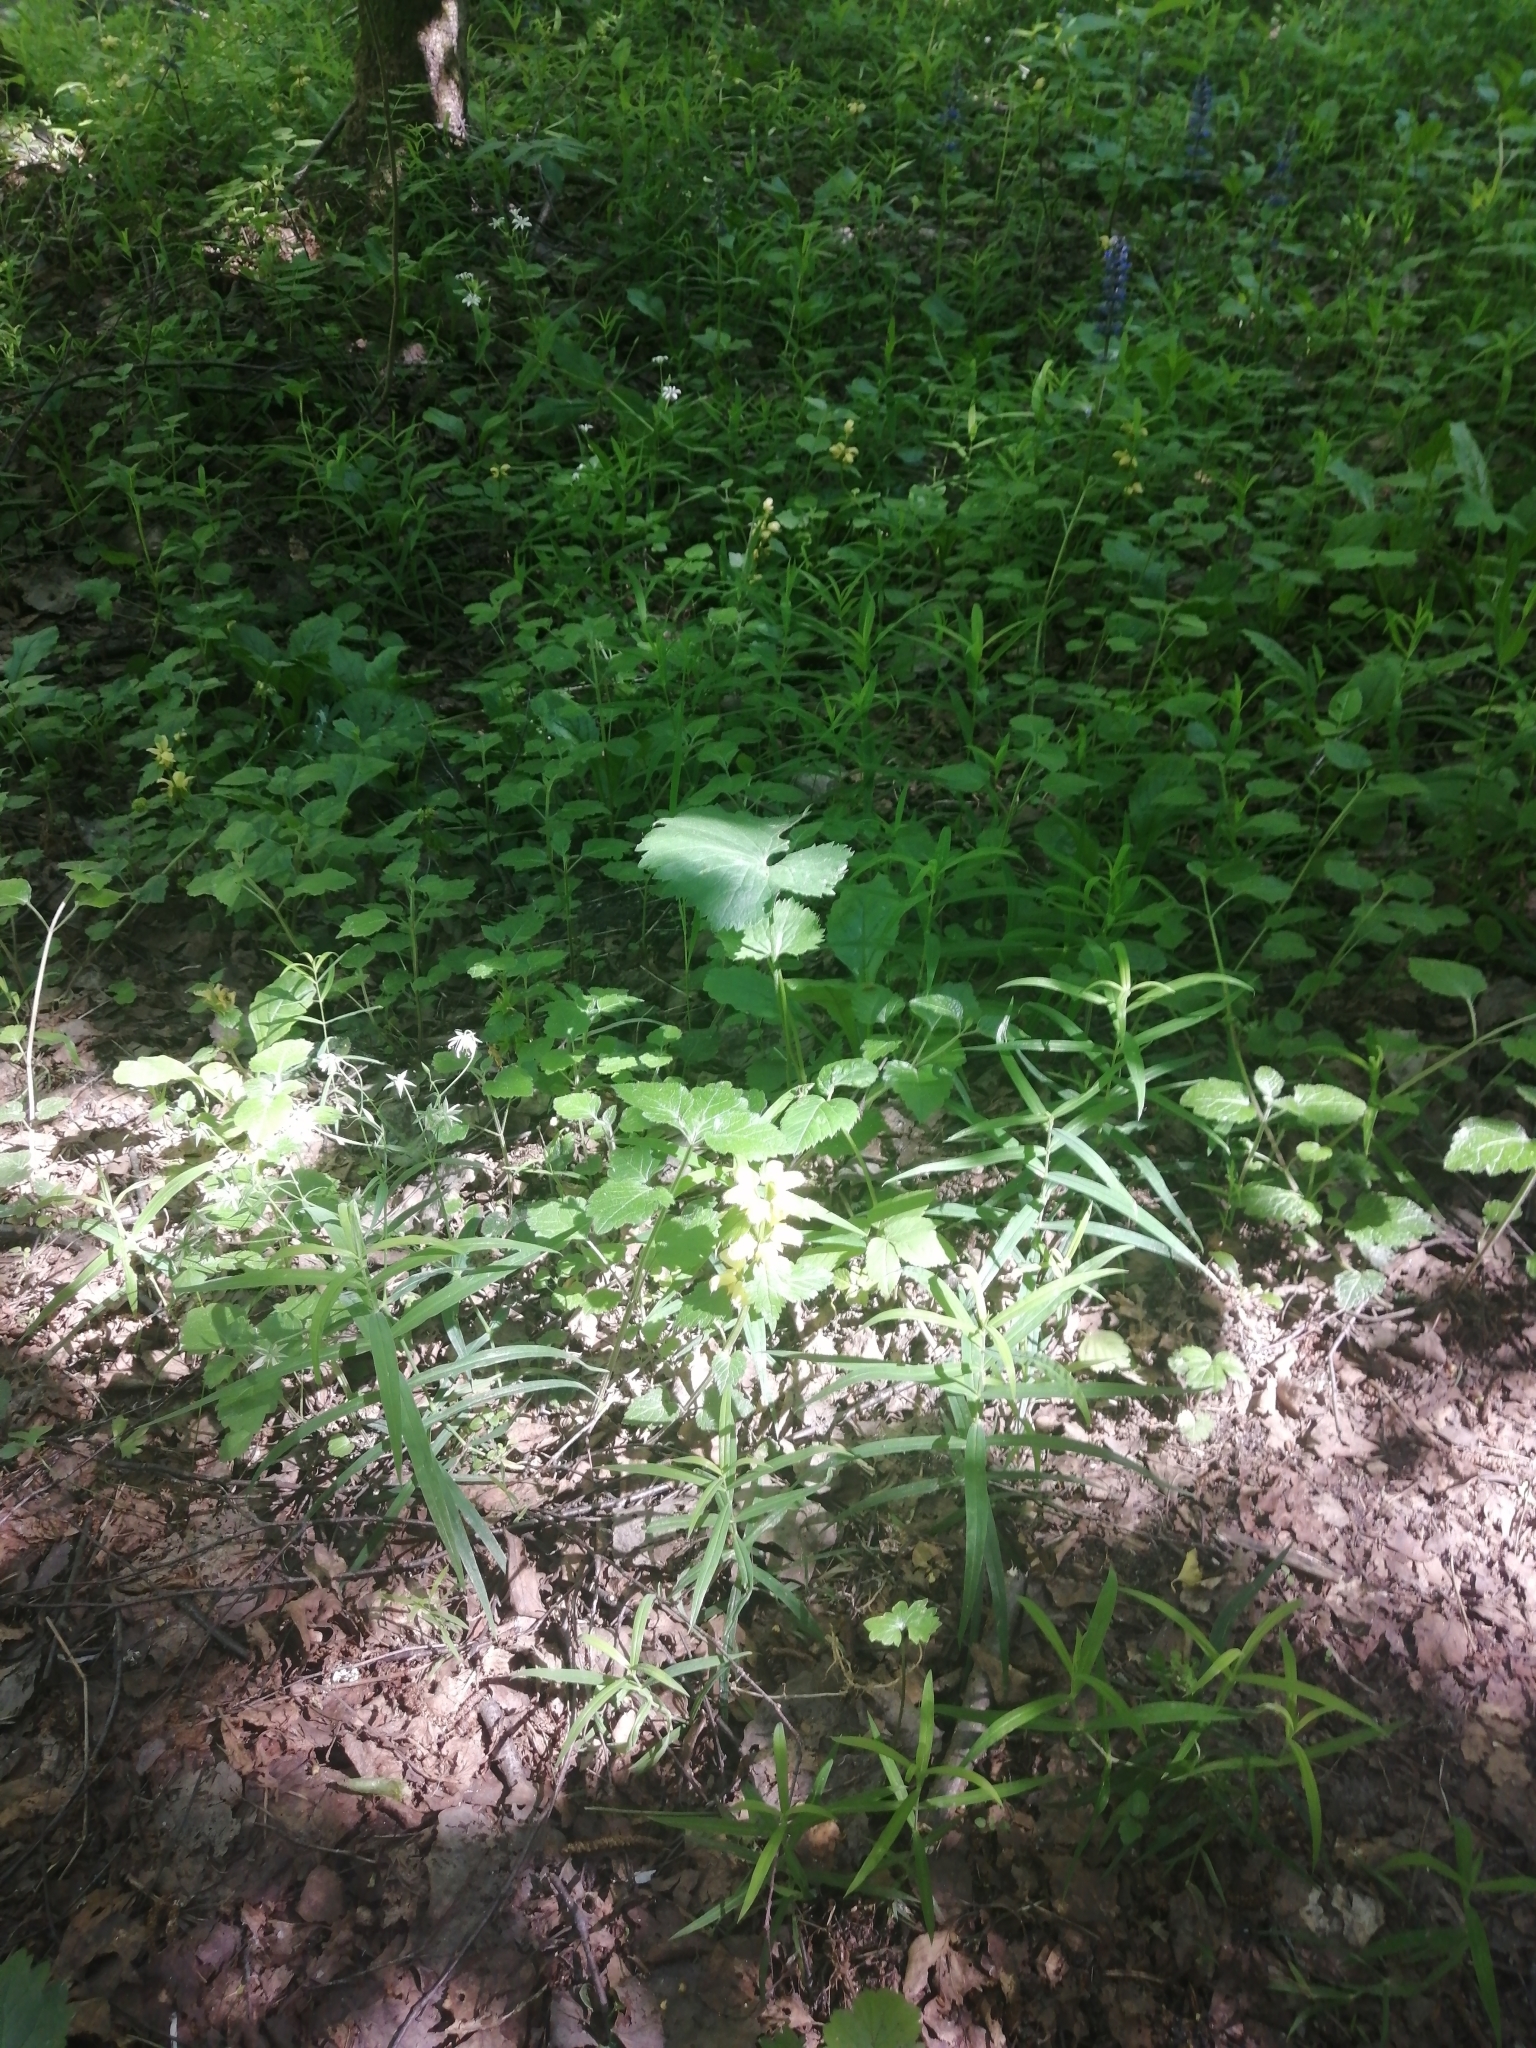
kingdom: Plantae
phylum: Tracheophyta
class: Magnoliopsida
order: Lamiales
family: Lamiaceae
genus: Lamium
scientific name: Lamium galeobdolon
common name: Yellow archangel
